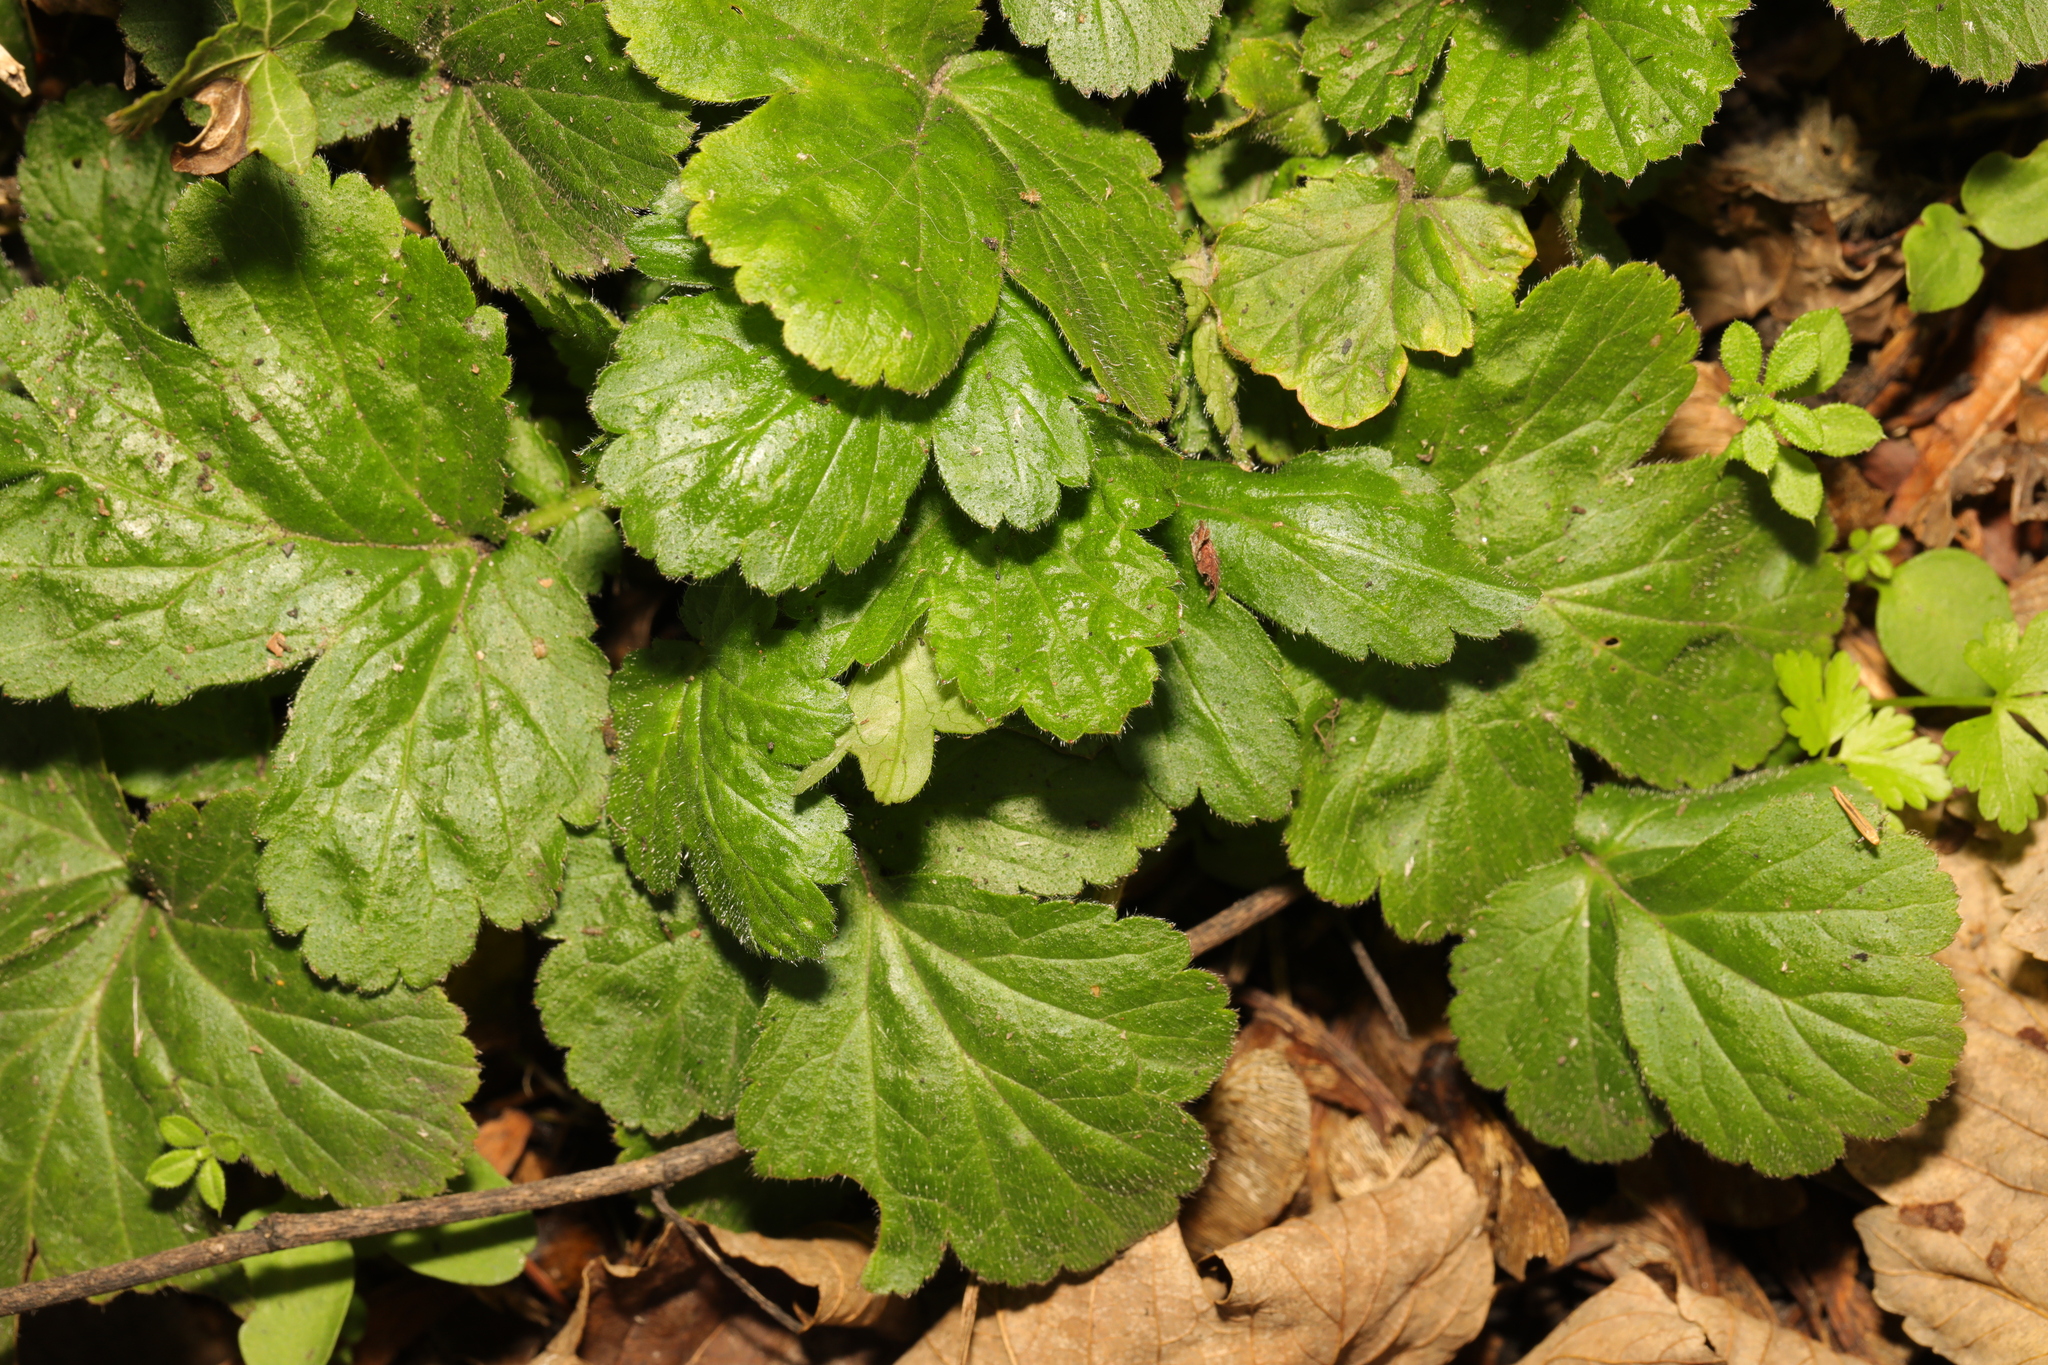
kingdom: Plantae
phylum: Tracheophyta
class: Magnoliopsida
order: Rosales
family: Rosaceae
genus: Geum
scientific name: Geum urbanum
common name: Wood avens
